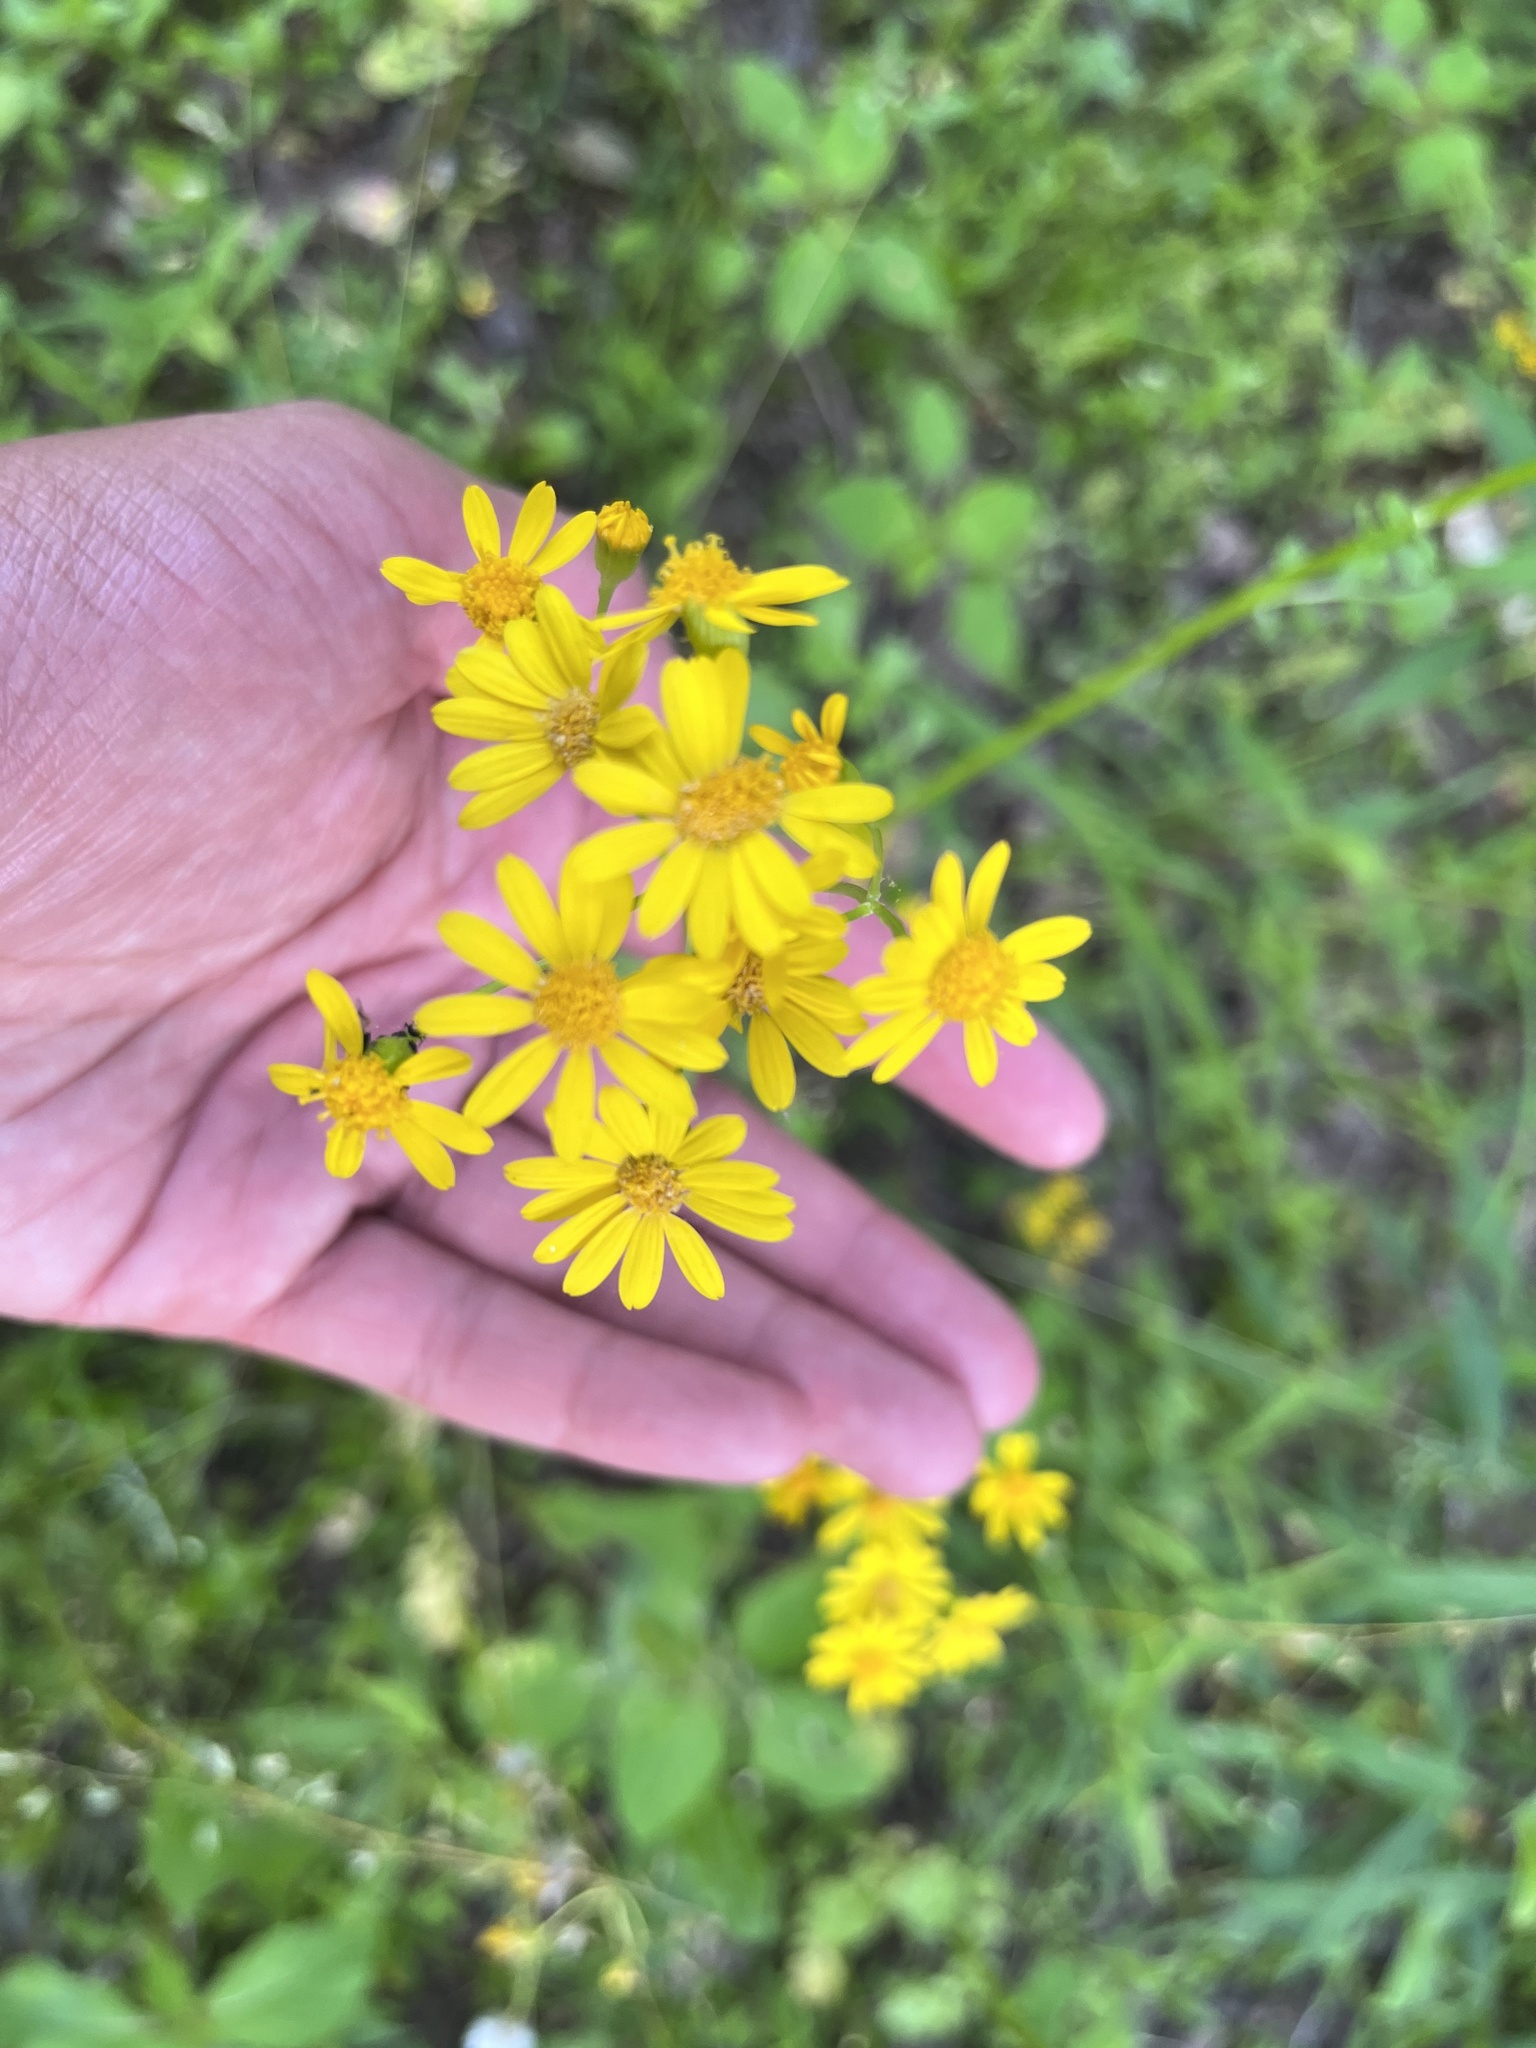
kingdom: Plantae
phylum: Tracheophyta
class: Magnoliopsida
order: Asterales
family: Asteraceae
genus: Packera
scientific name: Packera glabella
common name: Butterweed
